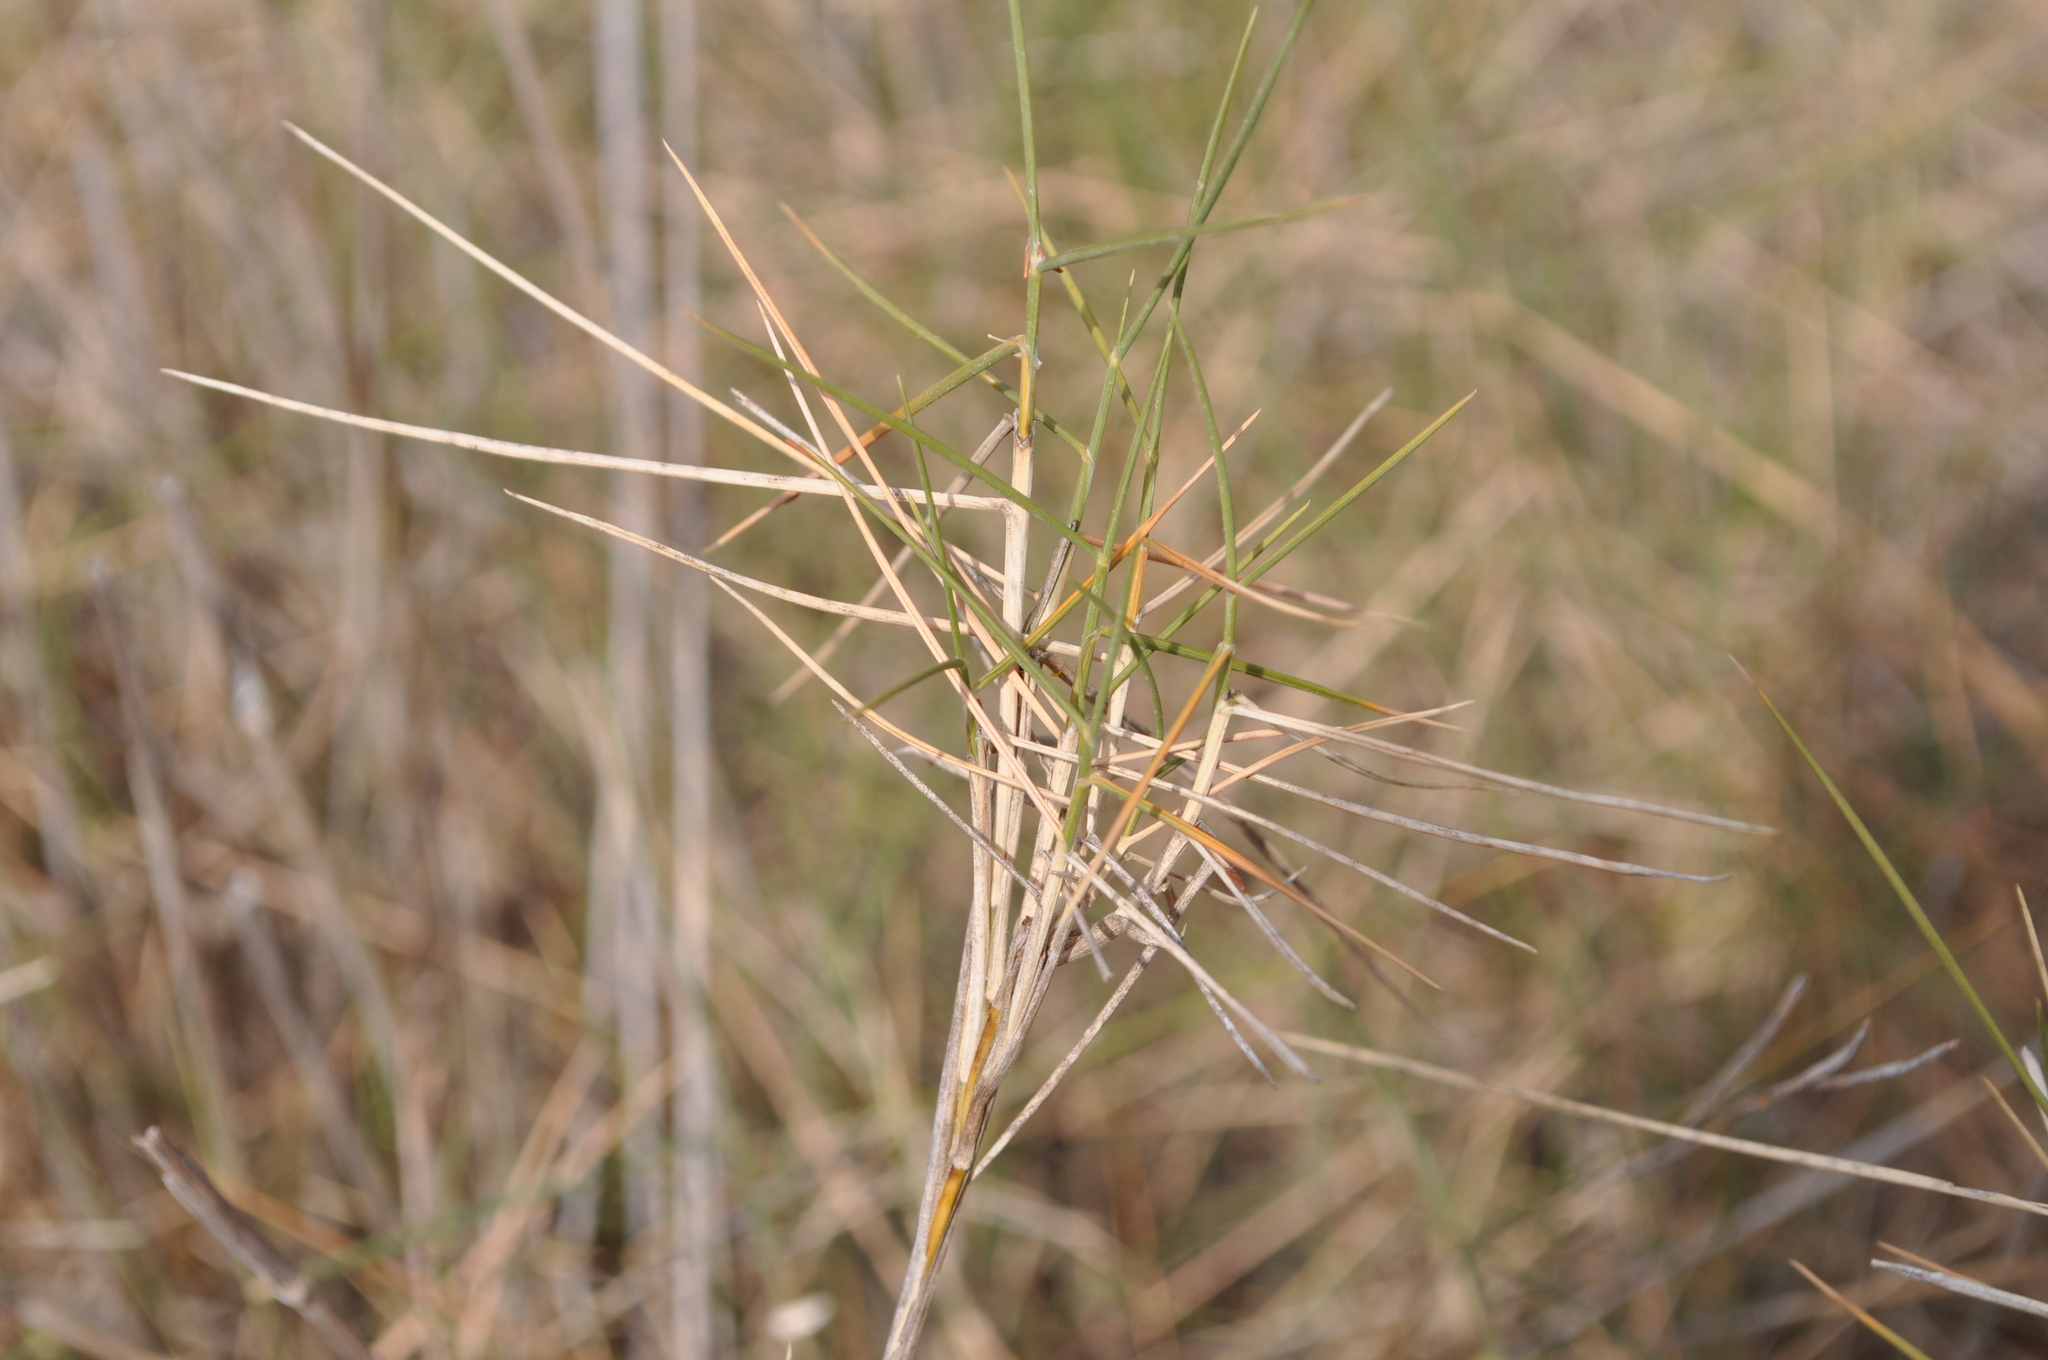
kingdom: Plantae
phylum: Tracheophyta
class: Liliopsida
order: Poales
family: Poaceae
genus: Brachypodium
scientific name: Brachypodium retusum
